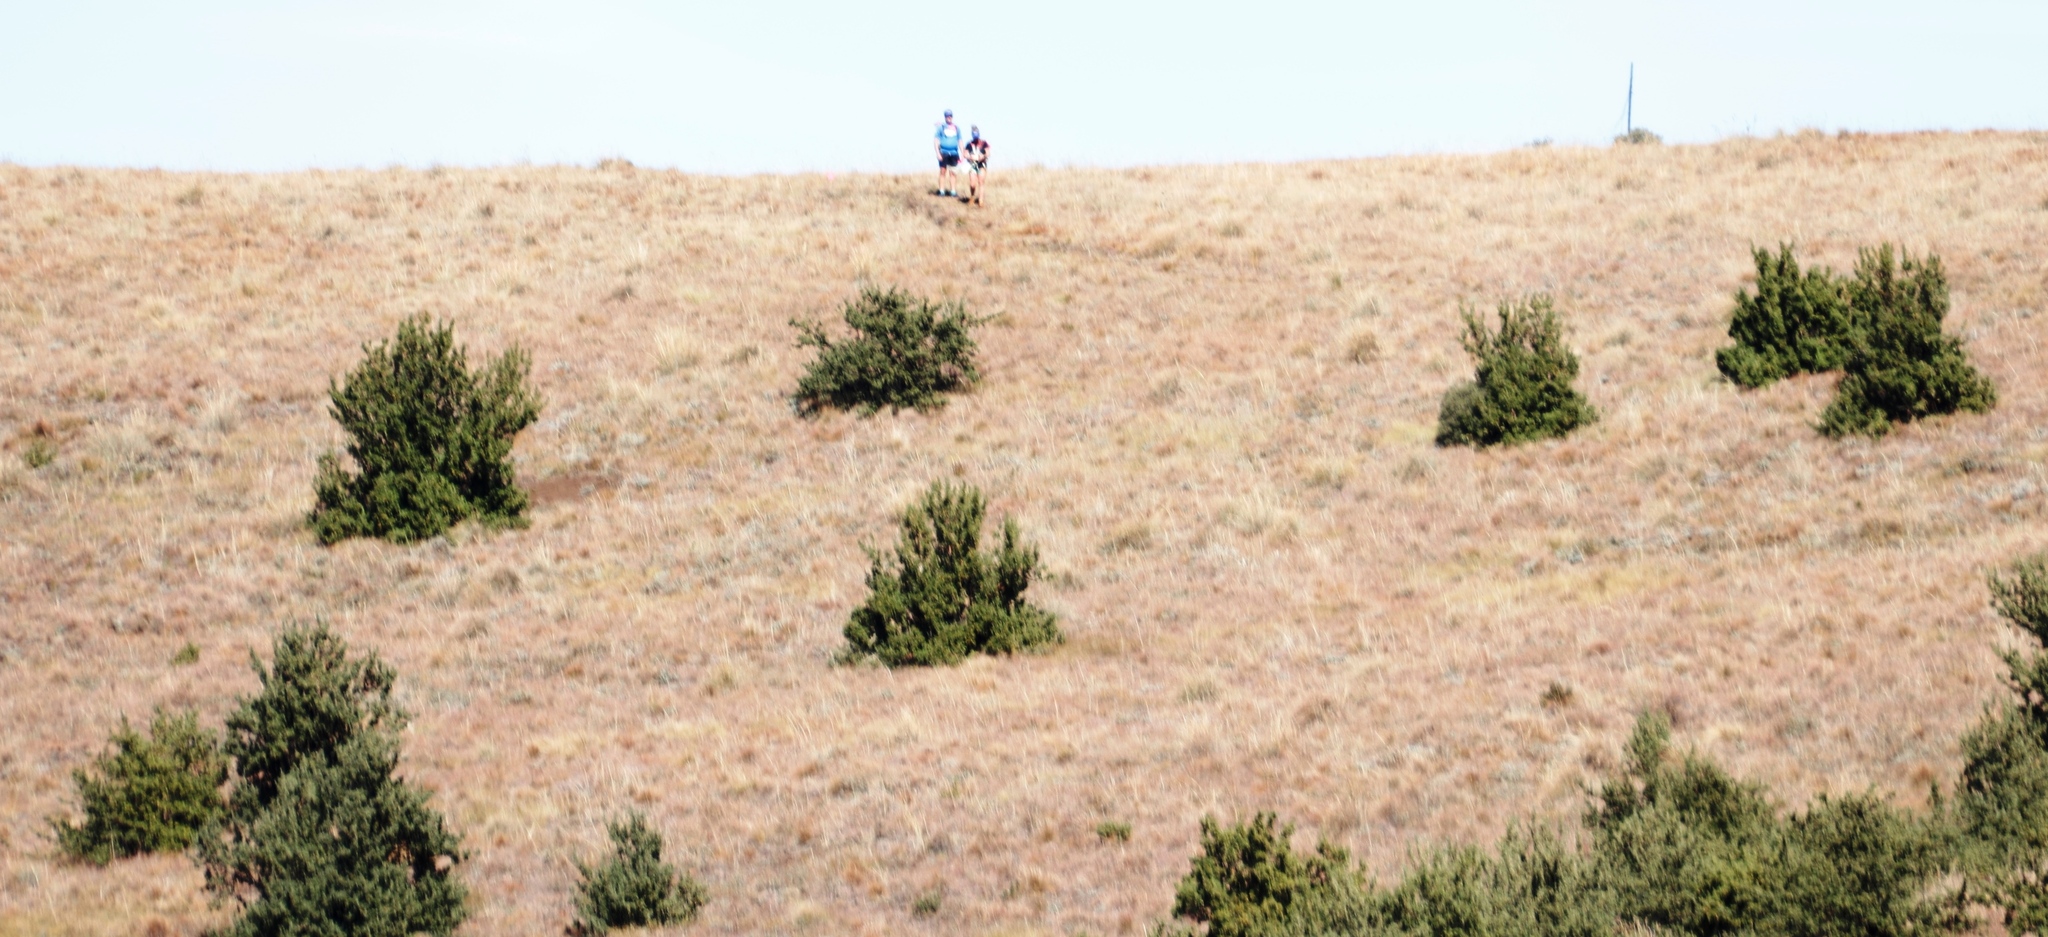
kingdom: Plantae
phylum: Tracheophyta
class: Magnoliopsida
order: Rosales
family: Rosaceae
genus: Leucosidea
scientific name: Leucosidea sericea
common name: Oldwood
